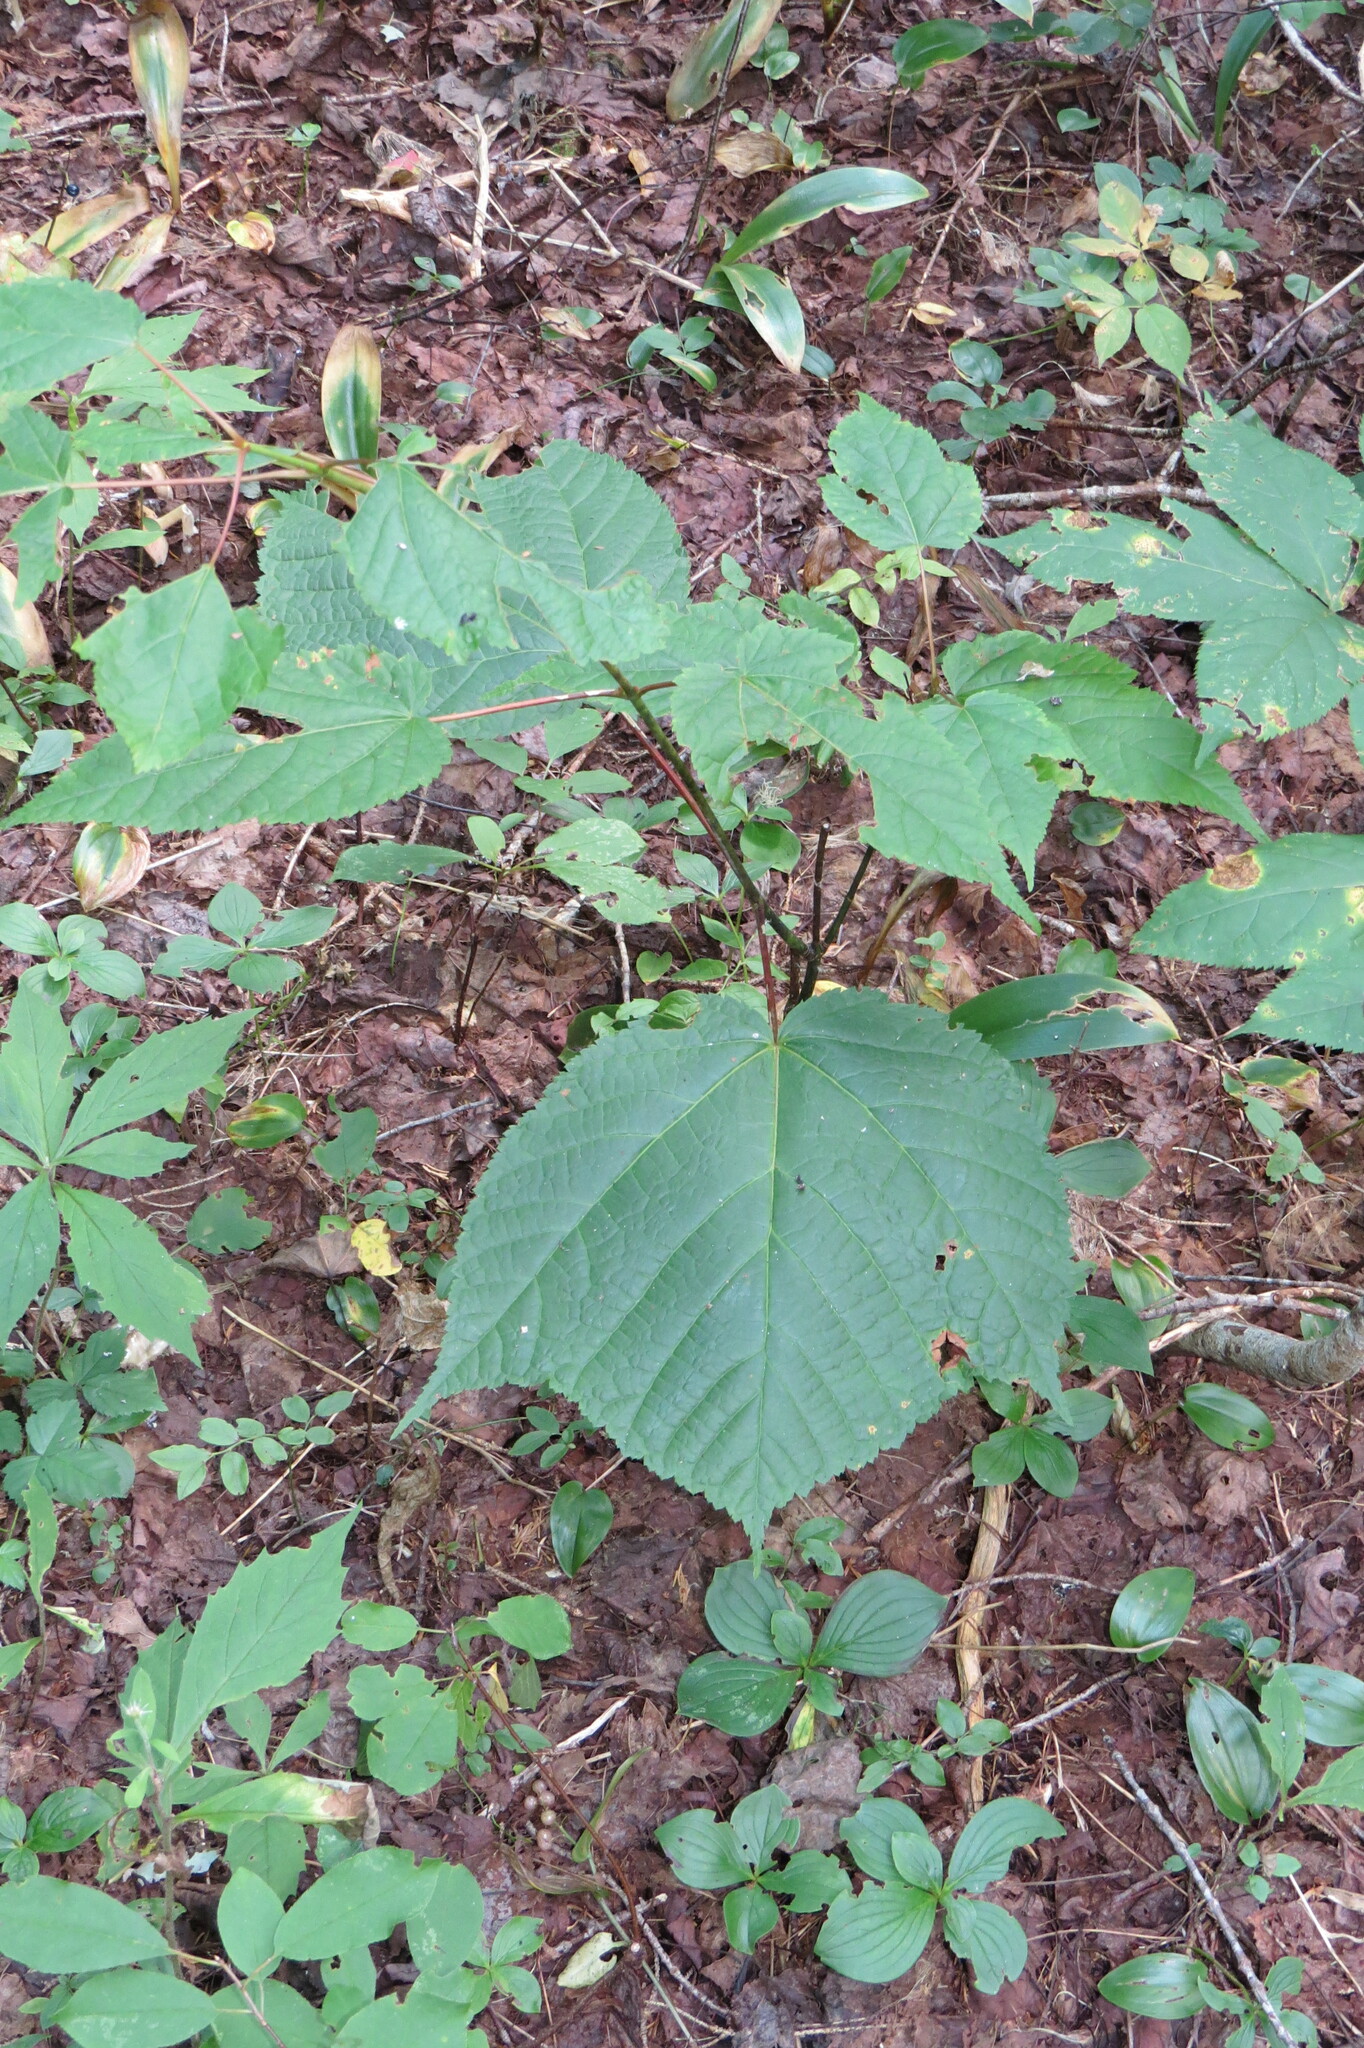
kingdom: Plantae
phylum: Tracheophyta
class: Magnoliopsida
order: Sapindales
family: Sapindaceae
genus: Acer
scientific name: Acer pensylvanicum
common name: Moosewood
